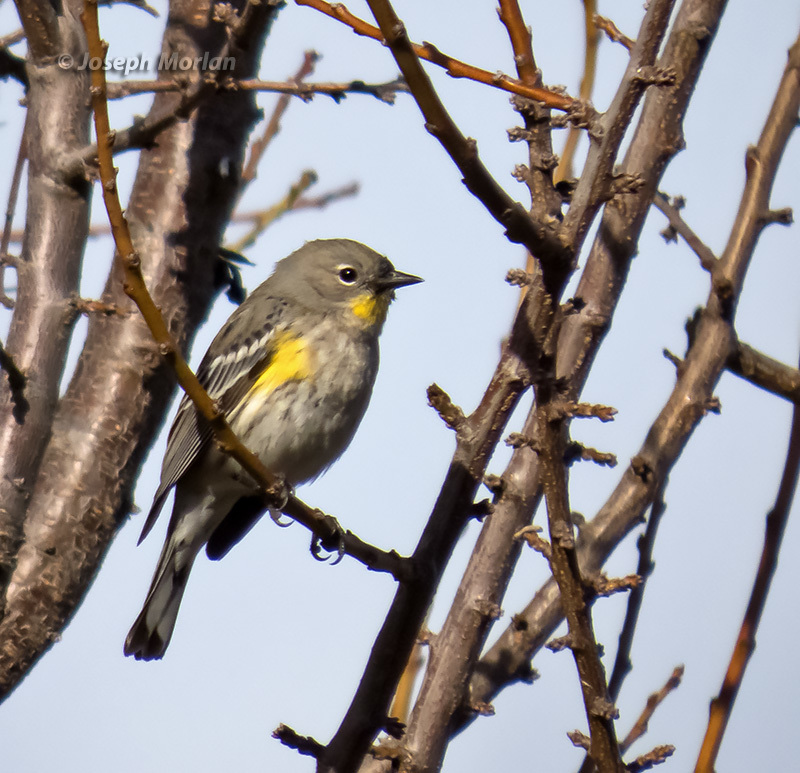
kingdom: Animalia
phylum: Chordata
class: Aves
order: Passeriformes
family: Parulidae
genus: Setophaga
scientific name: Setophaga coronata
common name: Myrtle warbler
